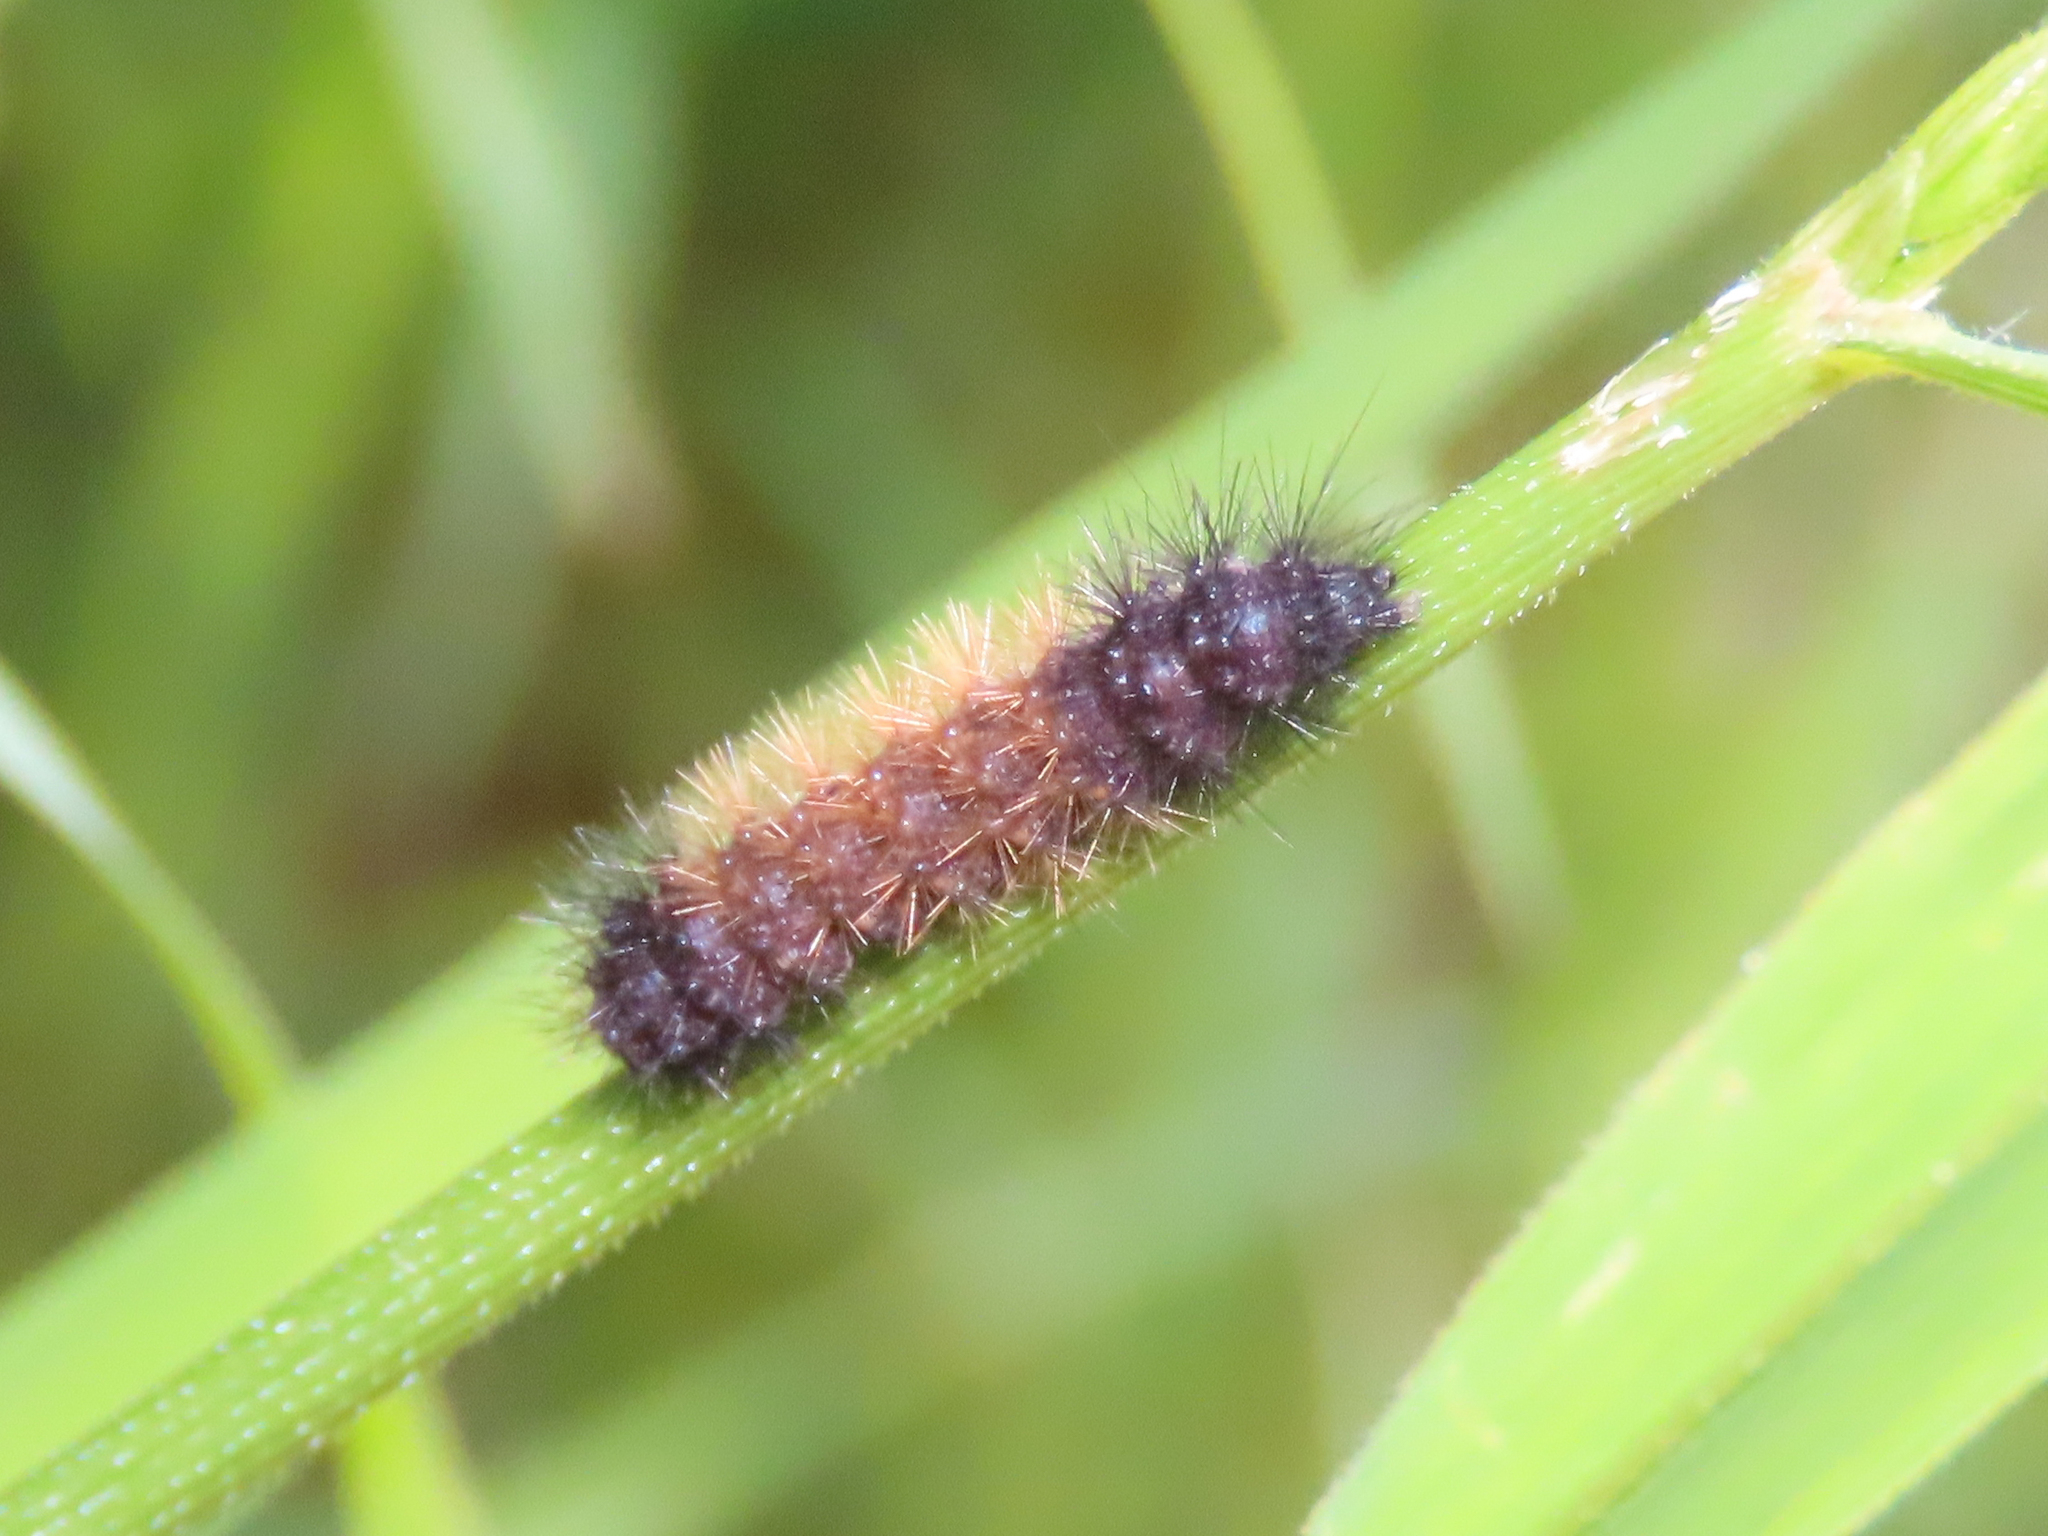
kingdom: Animalia
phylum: Arthropoda
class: Insecta
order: Lepidoptera
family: Erebidae
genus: Pyrrharctia
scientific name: Pyrrharctia isabella
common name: Isabella tiger moth
